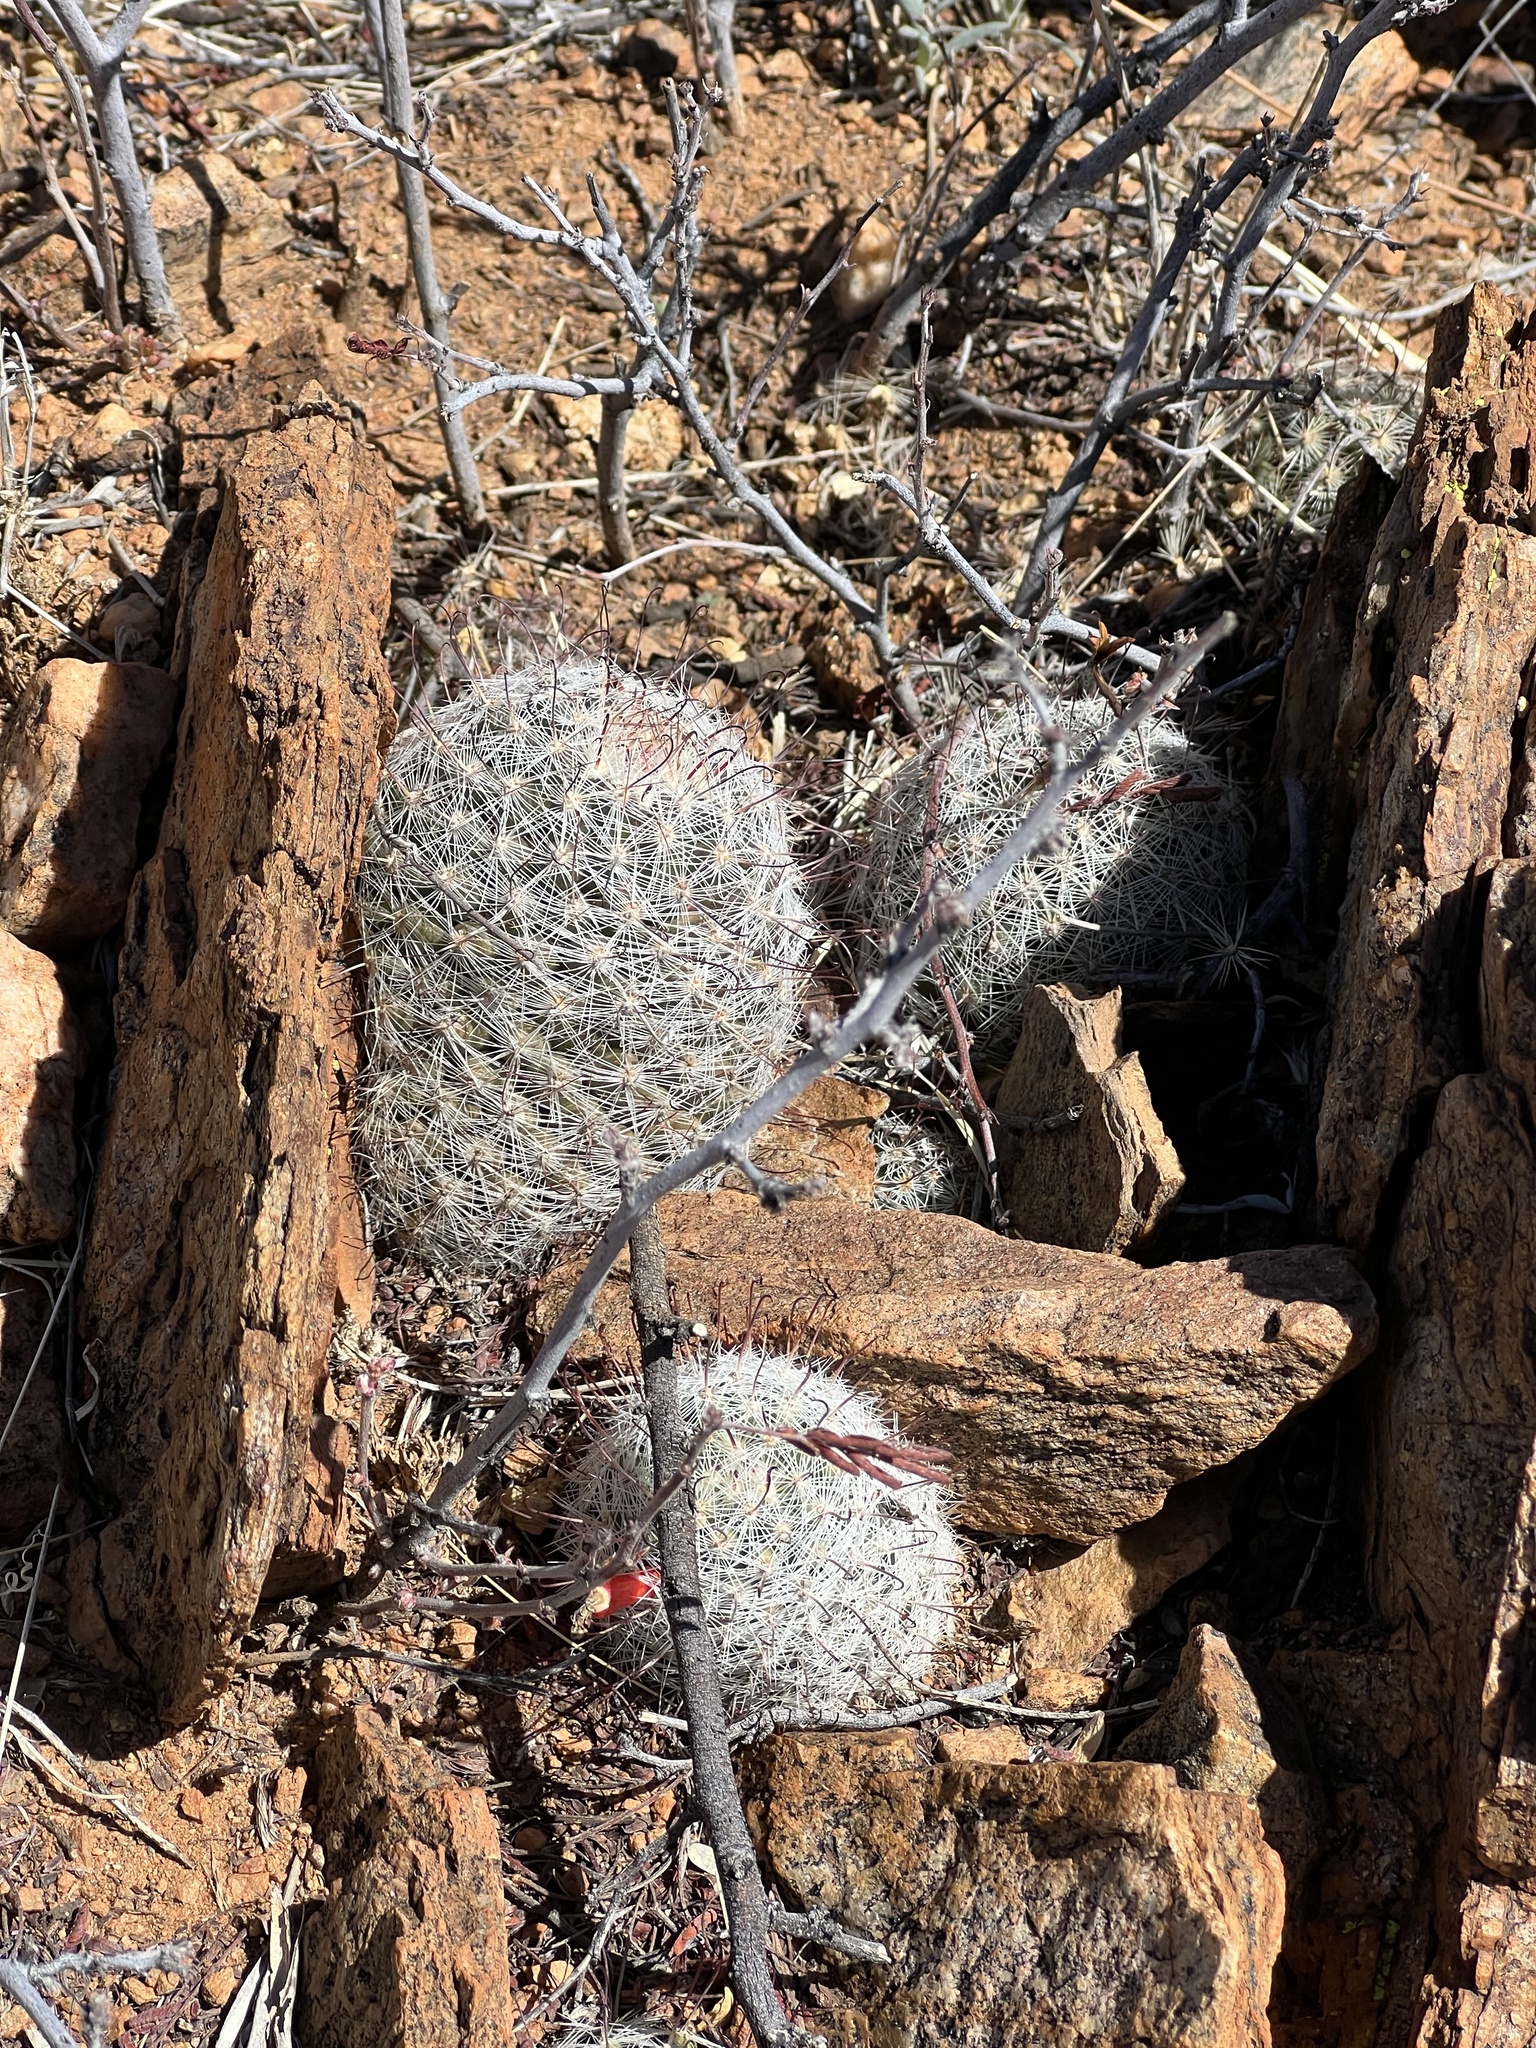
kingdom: Plantae
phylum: Tracheophyta
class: Magnoliopsida
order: Caryophyllales
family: Cactaceae
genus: Cochemiea
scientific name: Cochemiea grahamii
